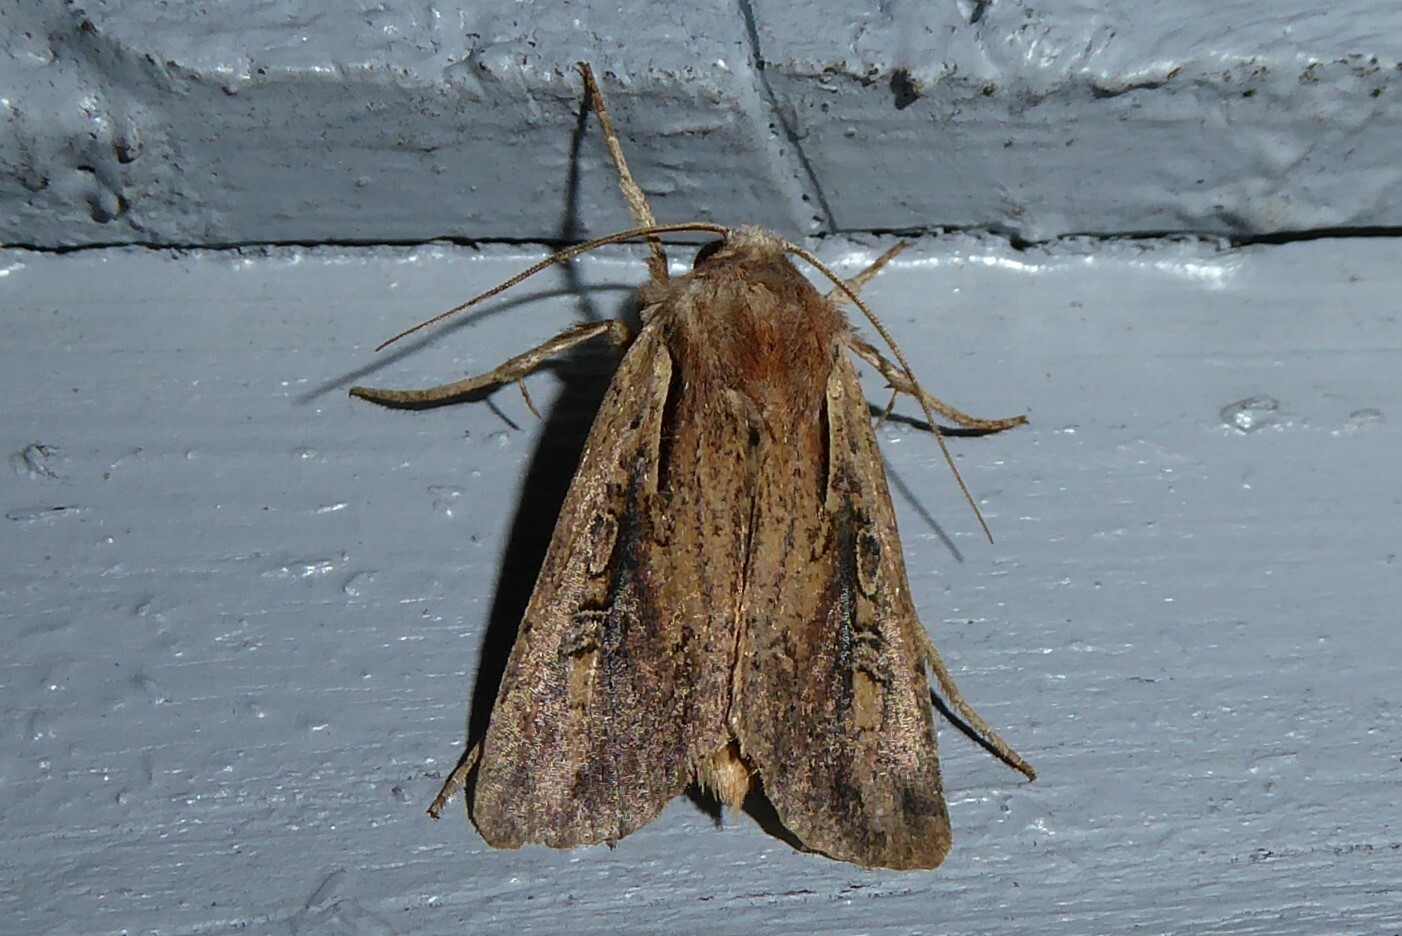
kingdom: Animalia
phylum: Arthropoda
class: Insecta
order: Lepidoptera
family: Noctuidae
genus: Ichneutica
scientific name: Ichneutica atristriga
